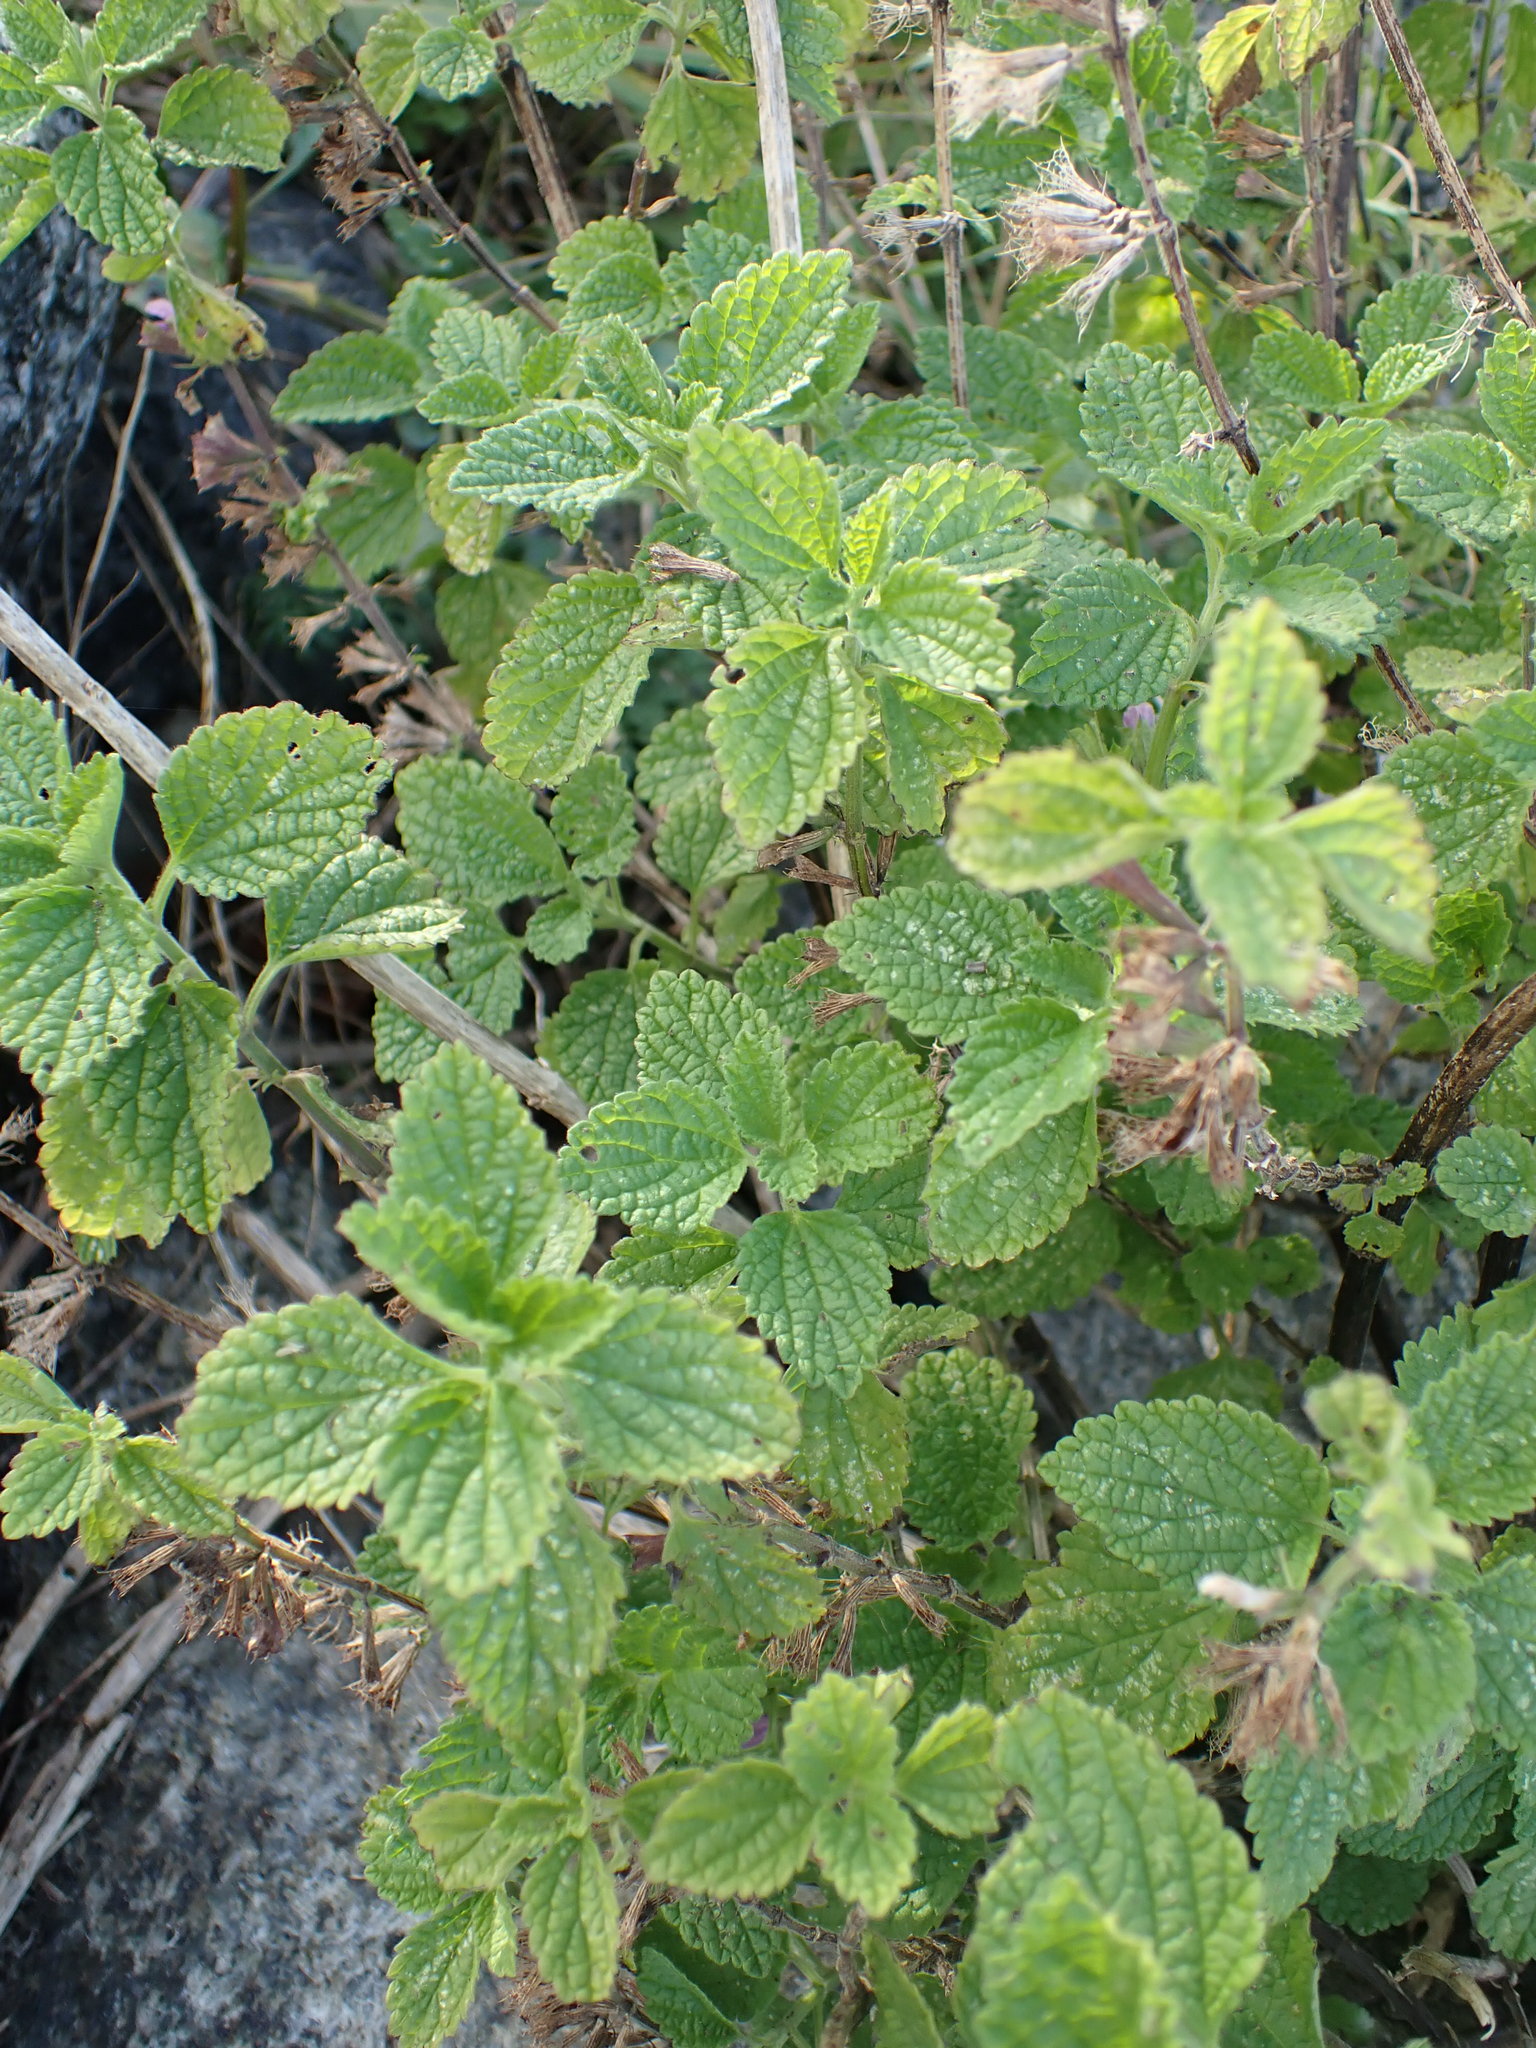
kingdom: Plantae
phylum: Tracheophyta
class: Magnoliopsida
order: Lamiales
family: Lamiaceae
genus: Ballota
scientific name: Ballota nigra
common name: Black horehound
